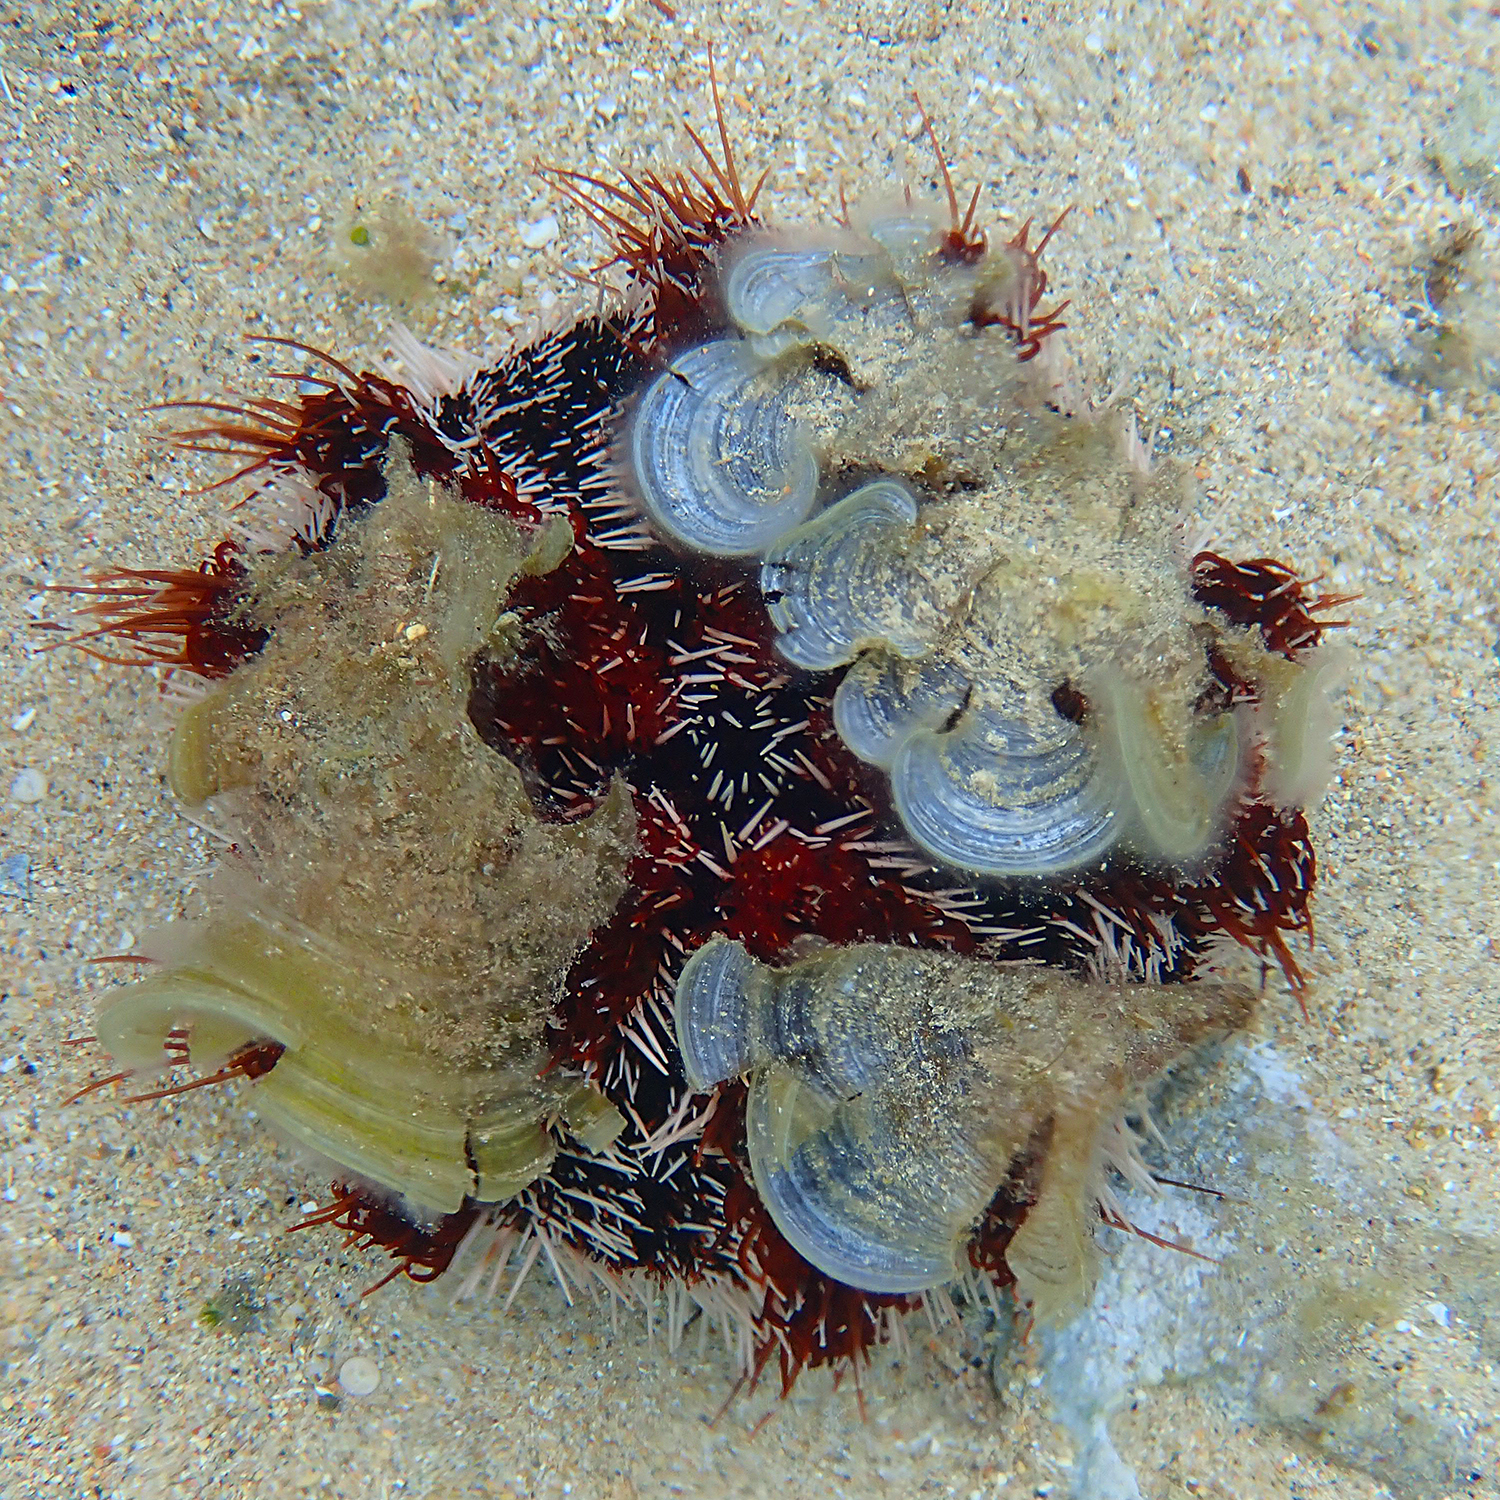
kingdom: Animalia
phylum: Echinodermata
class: Echinoidea
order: Camarodonta
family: Toxopneustidae
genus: Tripneustes
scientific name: Tripneustes gratilla
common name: Bischofsmützenseeigel
